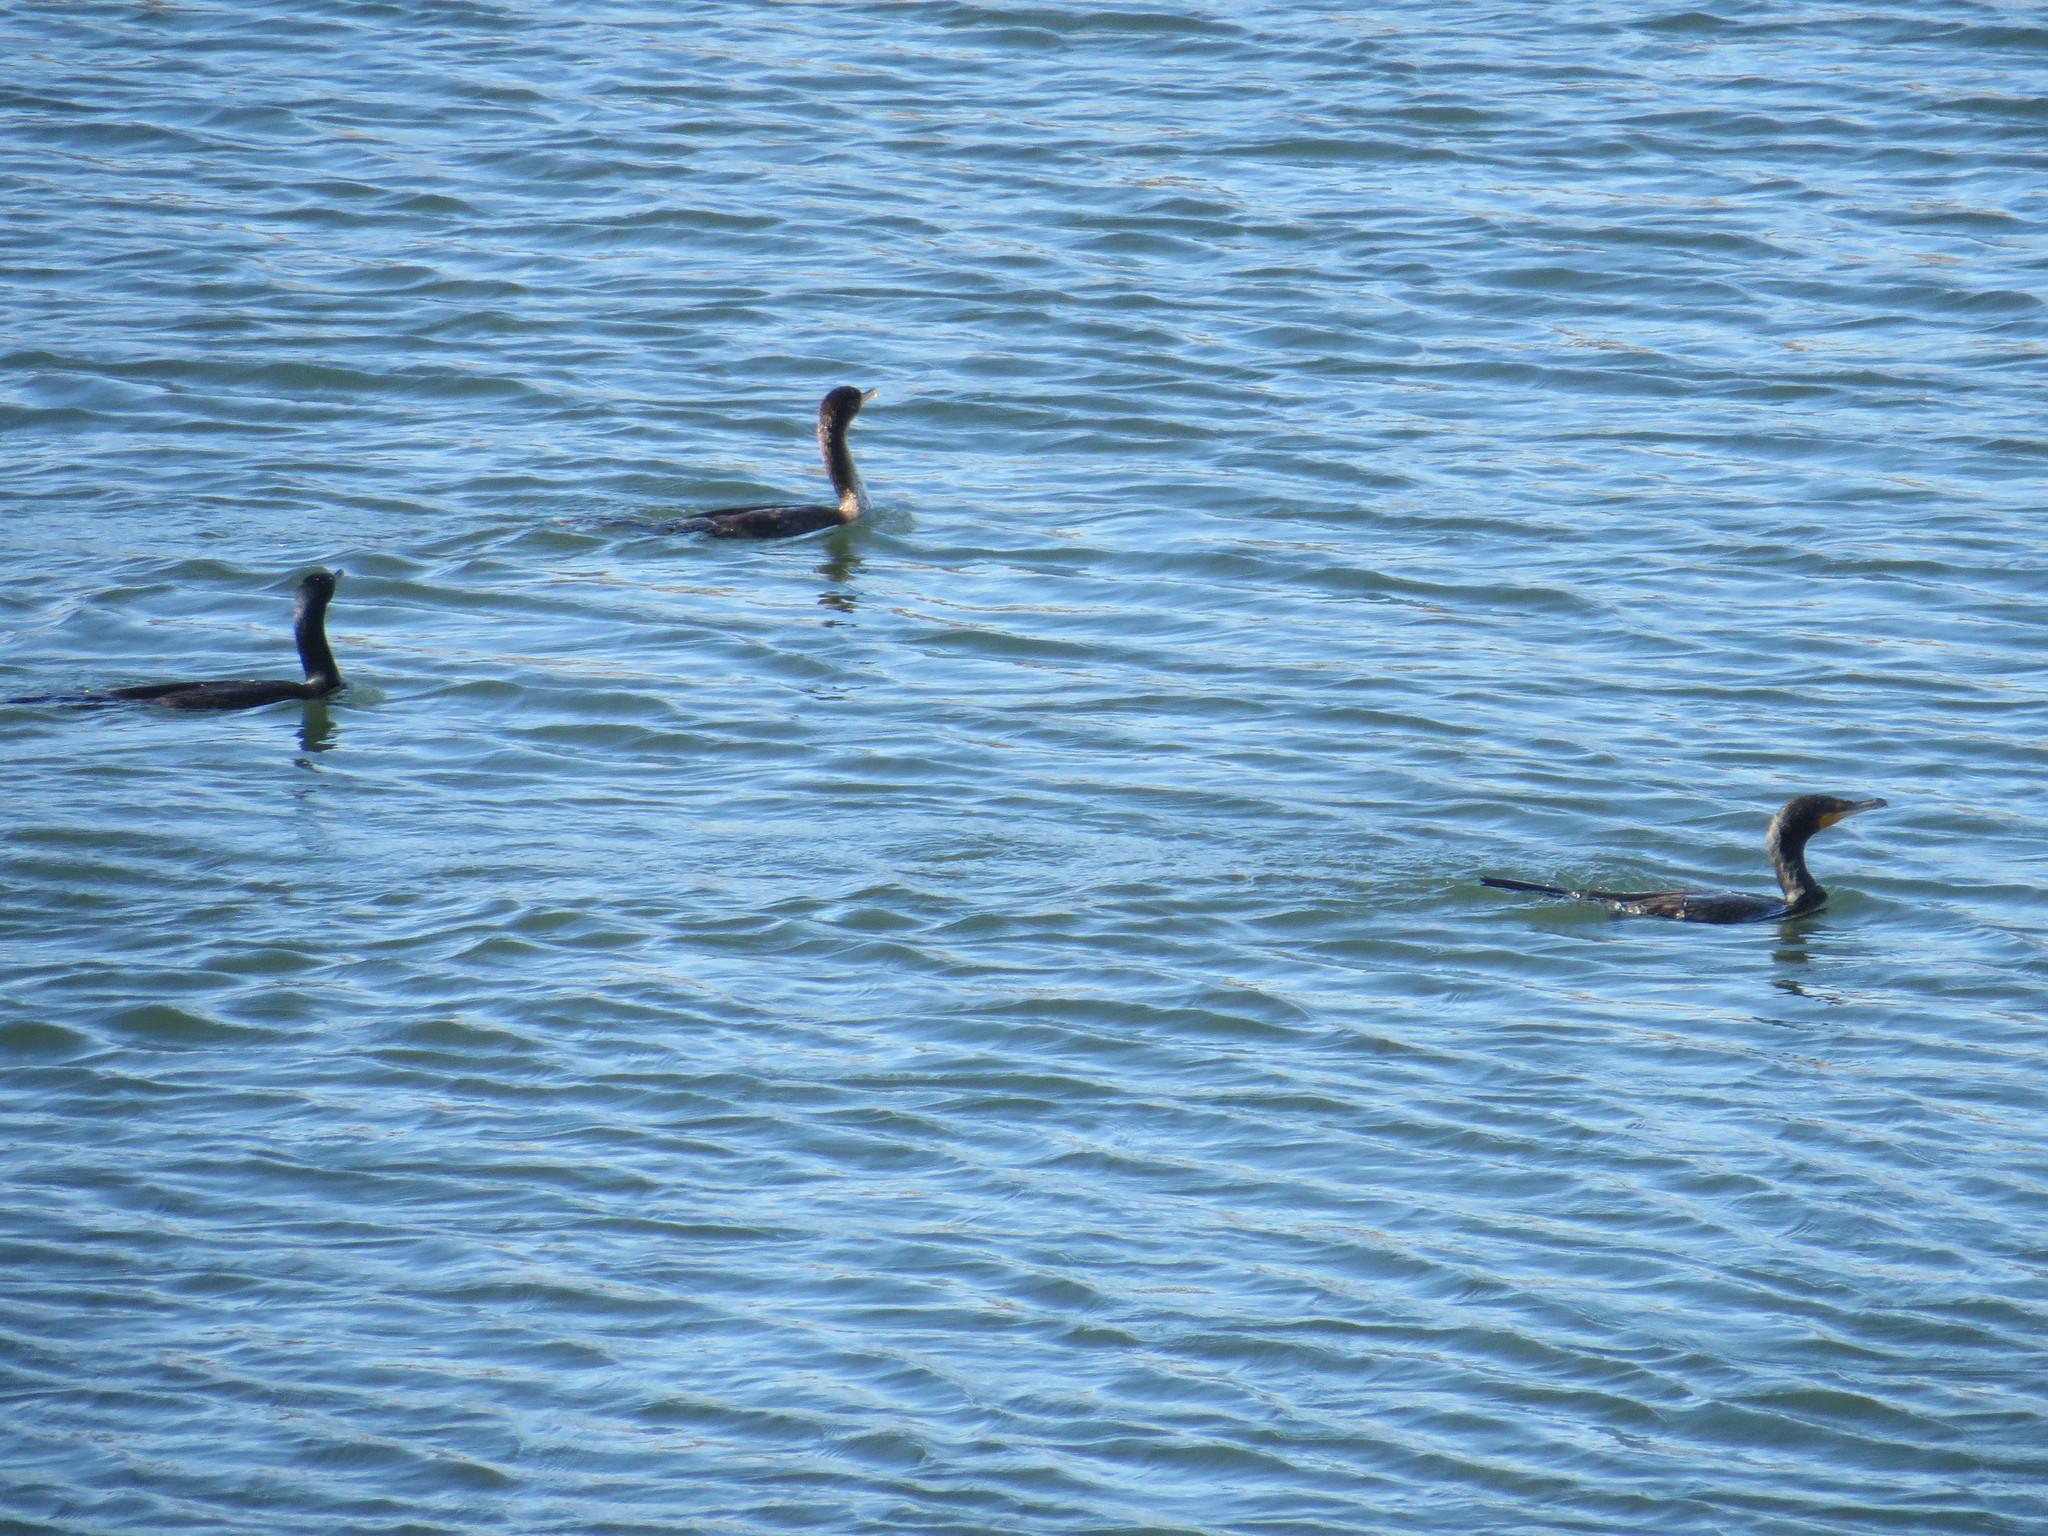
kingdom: Animalia
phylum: Chordata
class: Aves
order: Suliformes
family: Phalacrocoracidae
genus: Phalacrocorax
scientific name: Phalacrocorax auritus
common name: Double-crested cormorant
